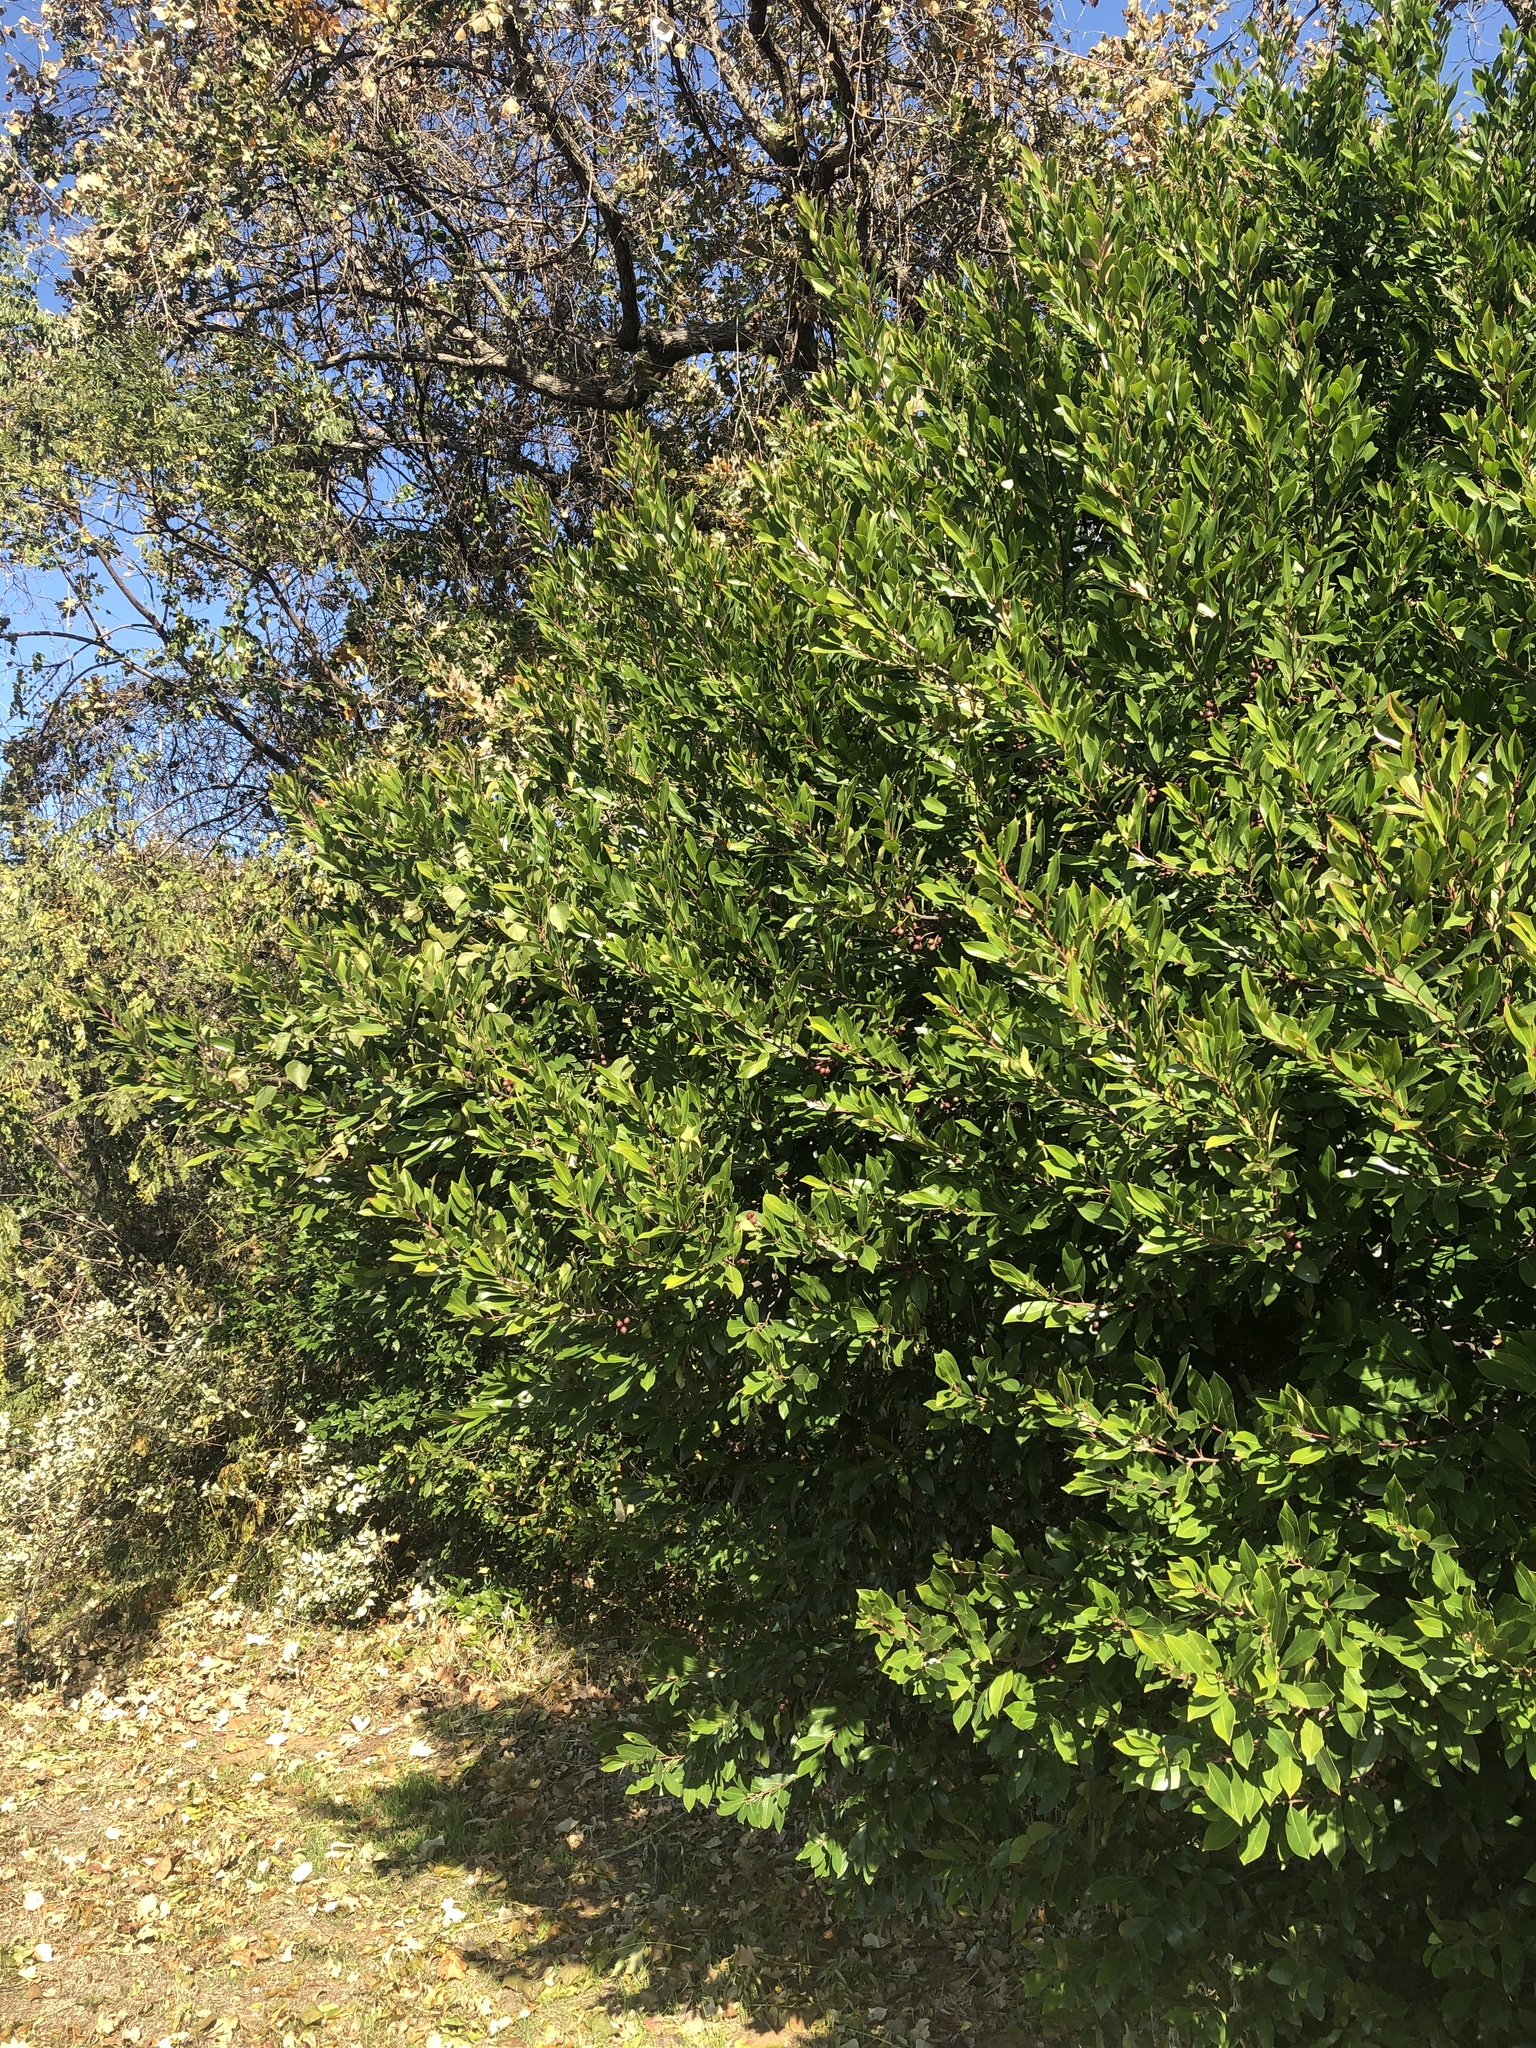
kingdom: Plantae
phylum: Tracheophyta
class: Magnoliopsida
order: Rosales
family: Rosaceae
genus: Prunus
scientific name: Prunus caroliniana
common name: Carolina laurel cherry
